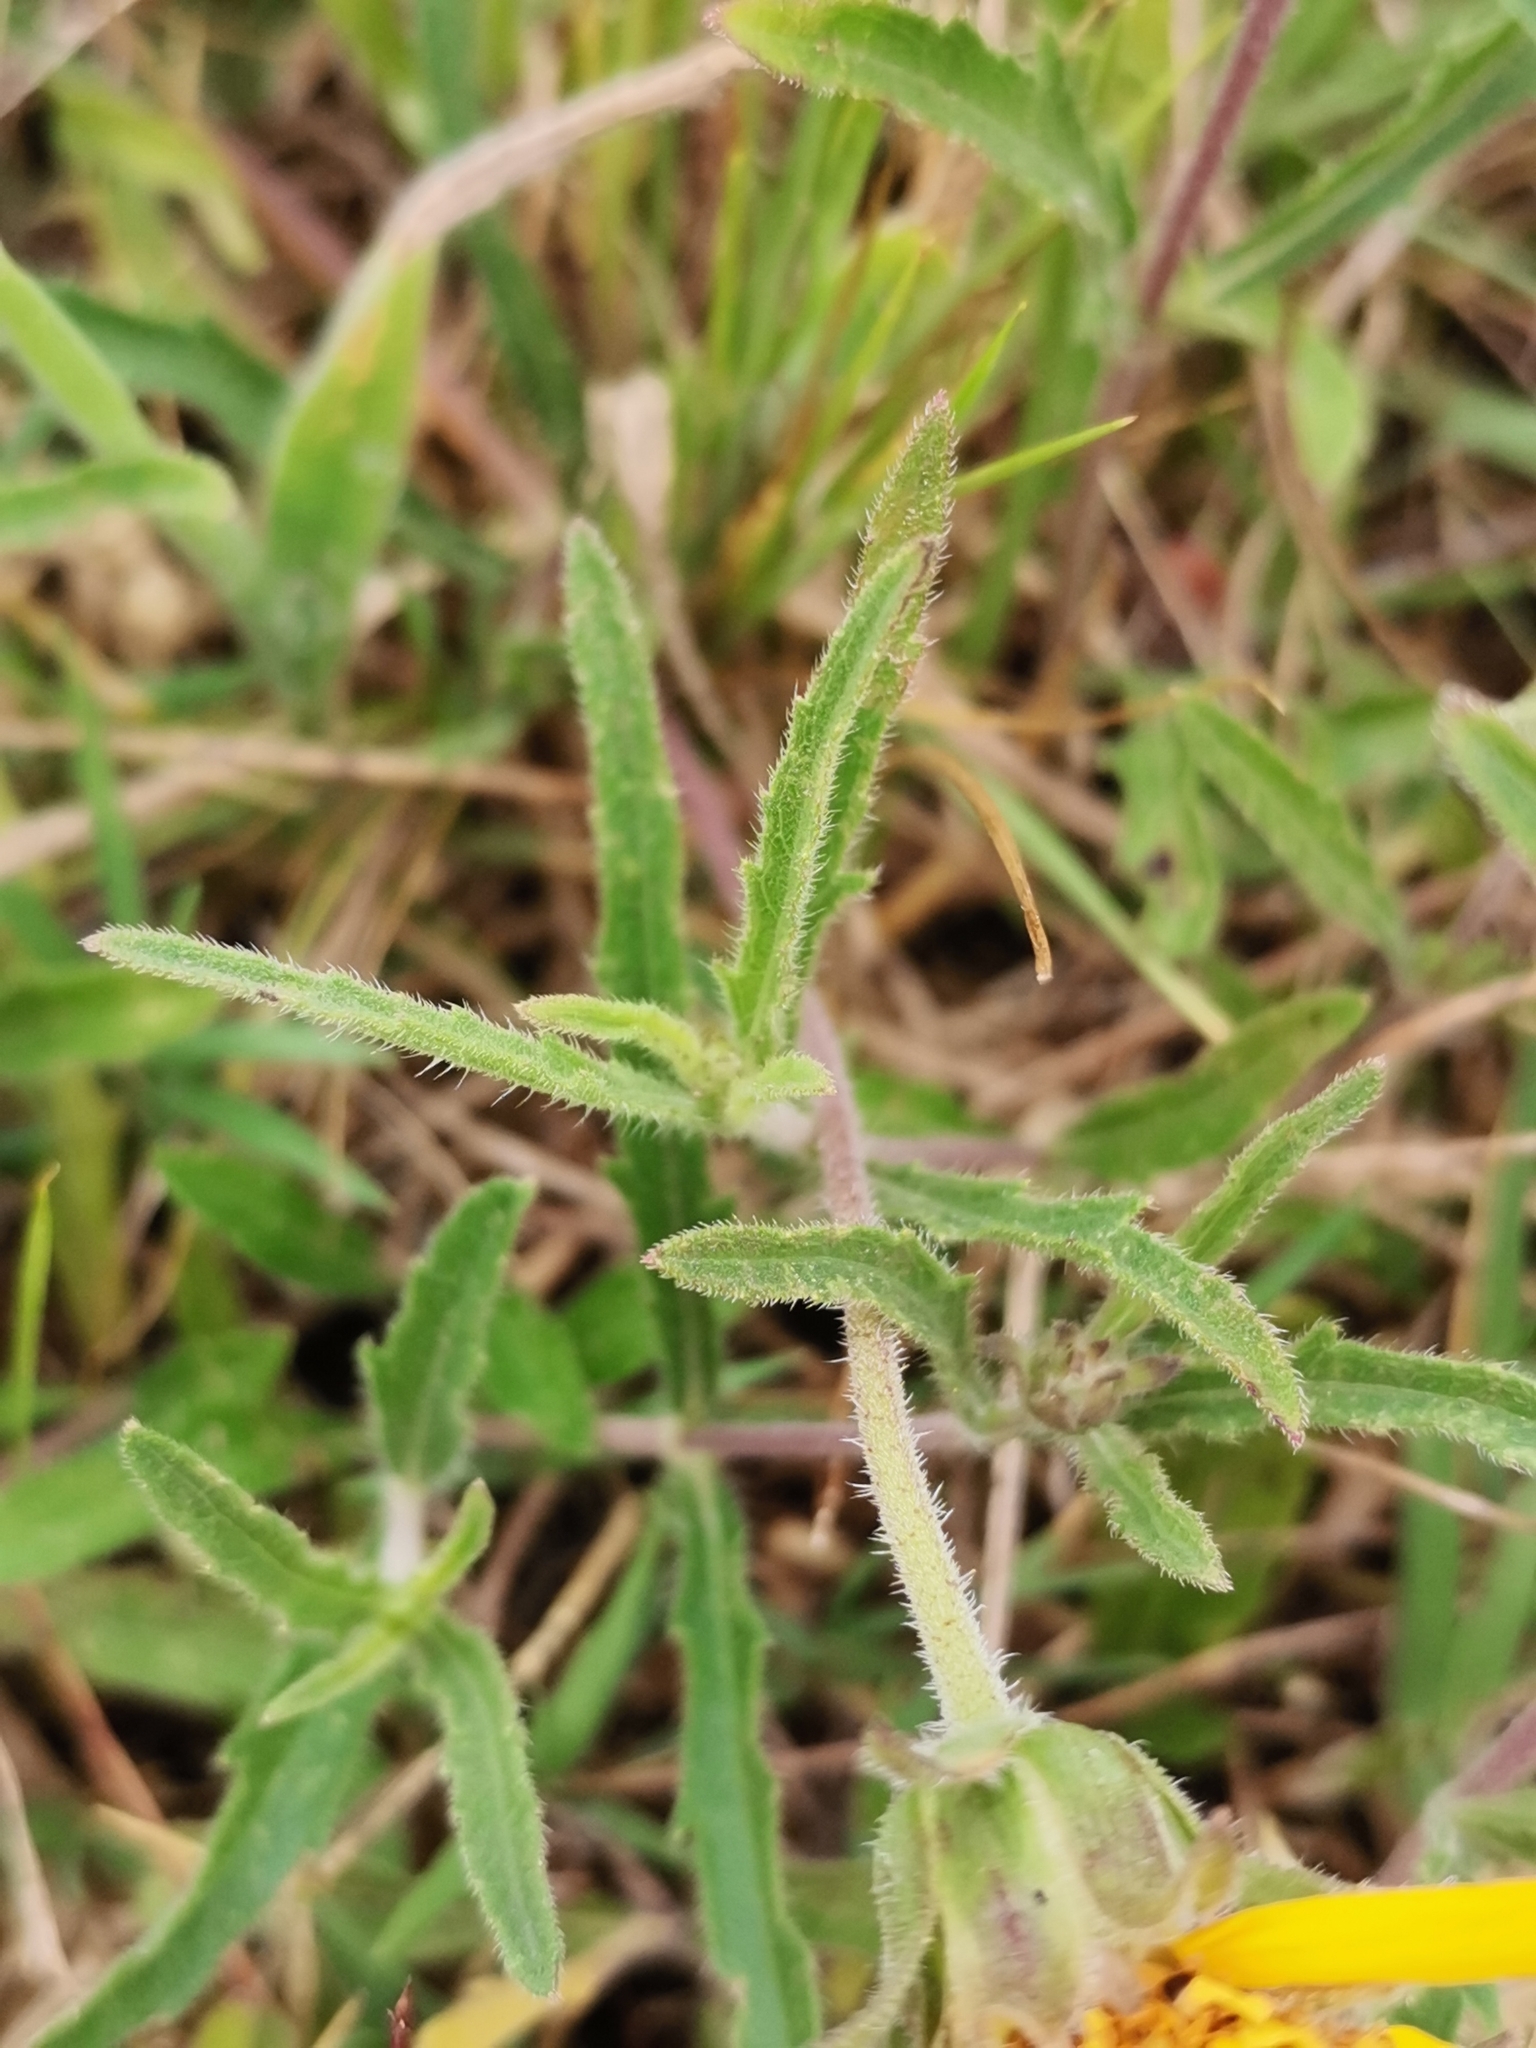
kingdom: Plantae
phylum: Tracheophyta
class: Magnoliopsida
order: Asterales
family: Asteraceae
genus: Wedelia
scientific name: Wedelia montevidensis
